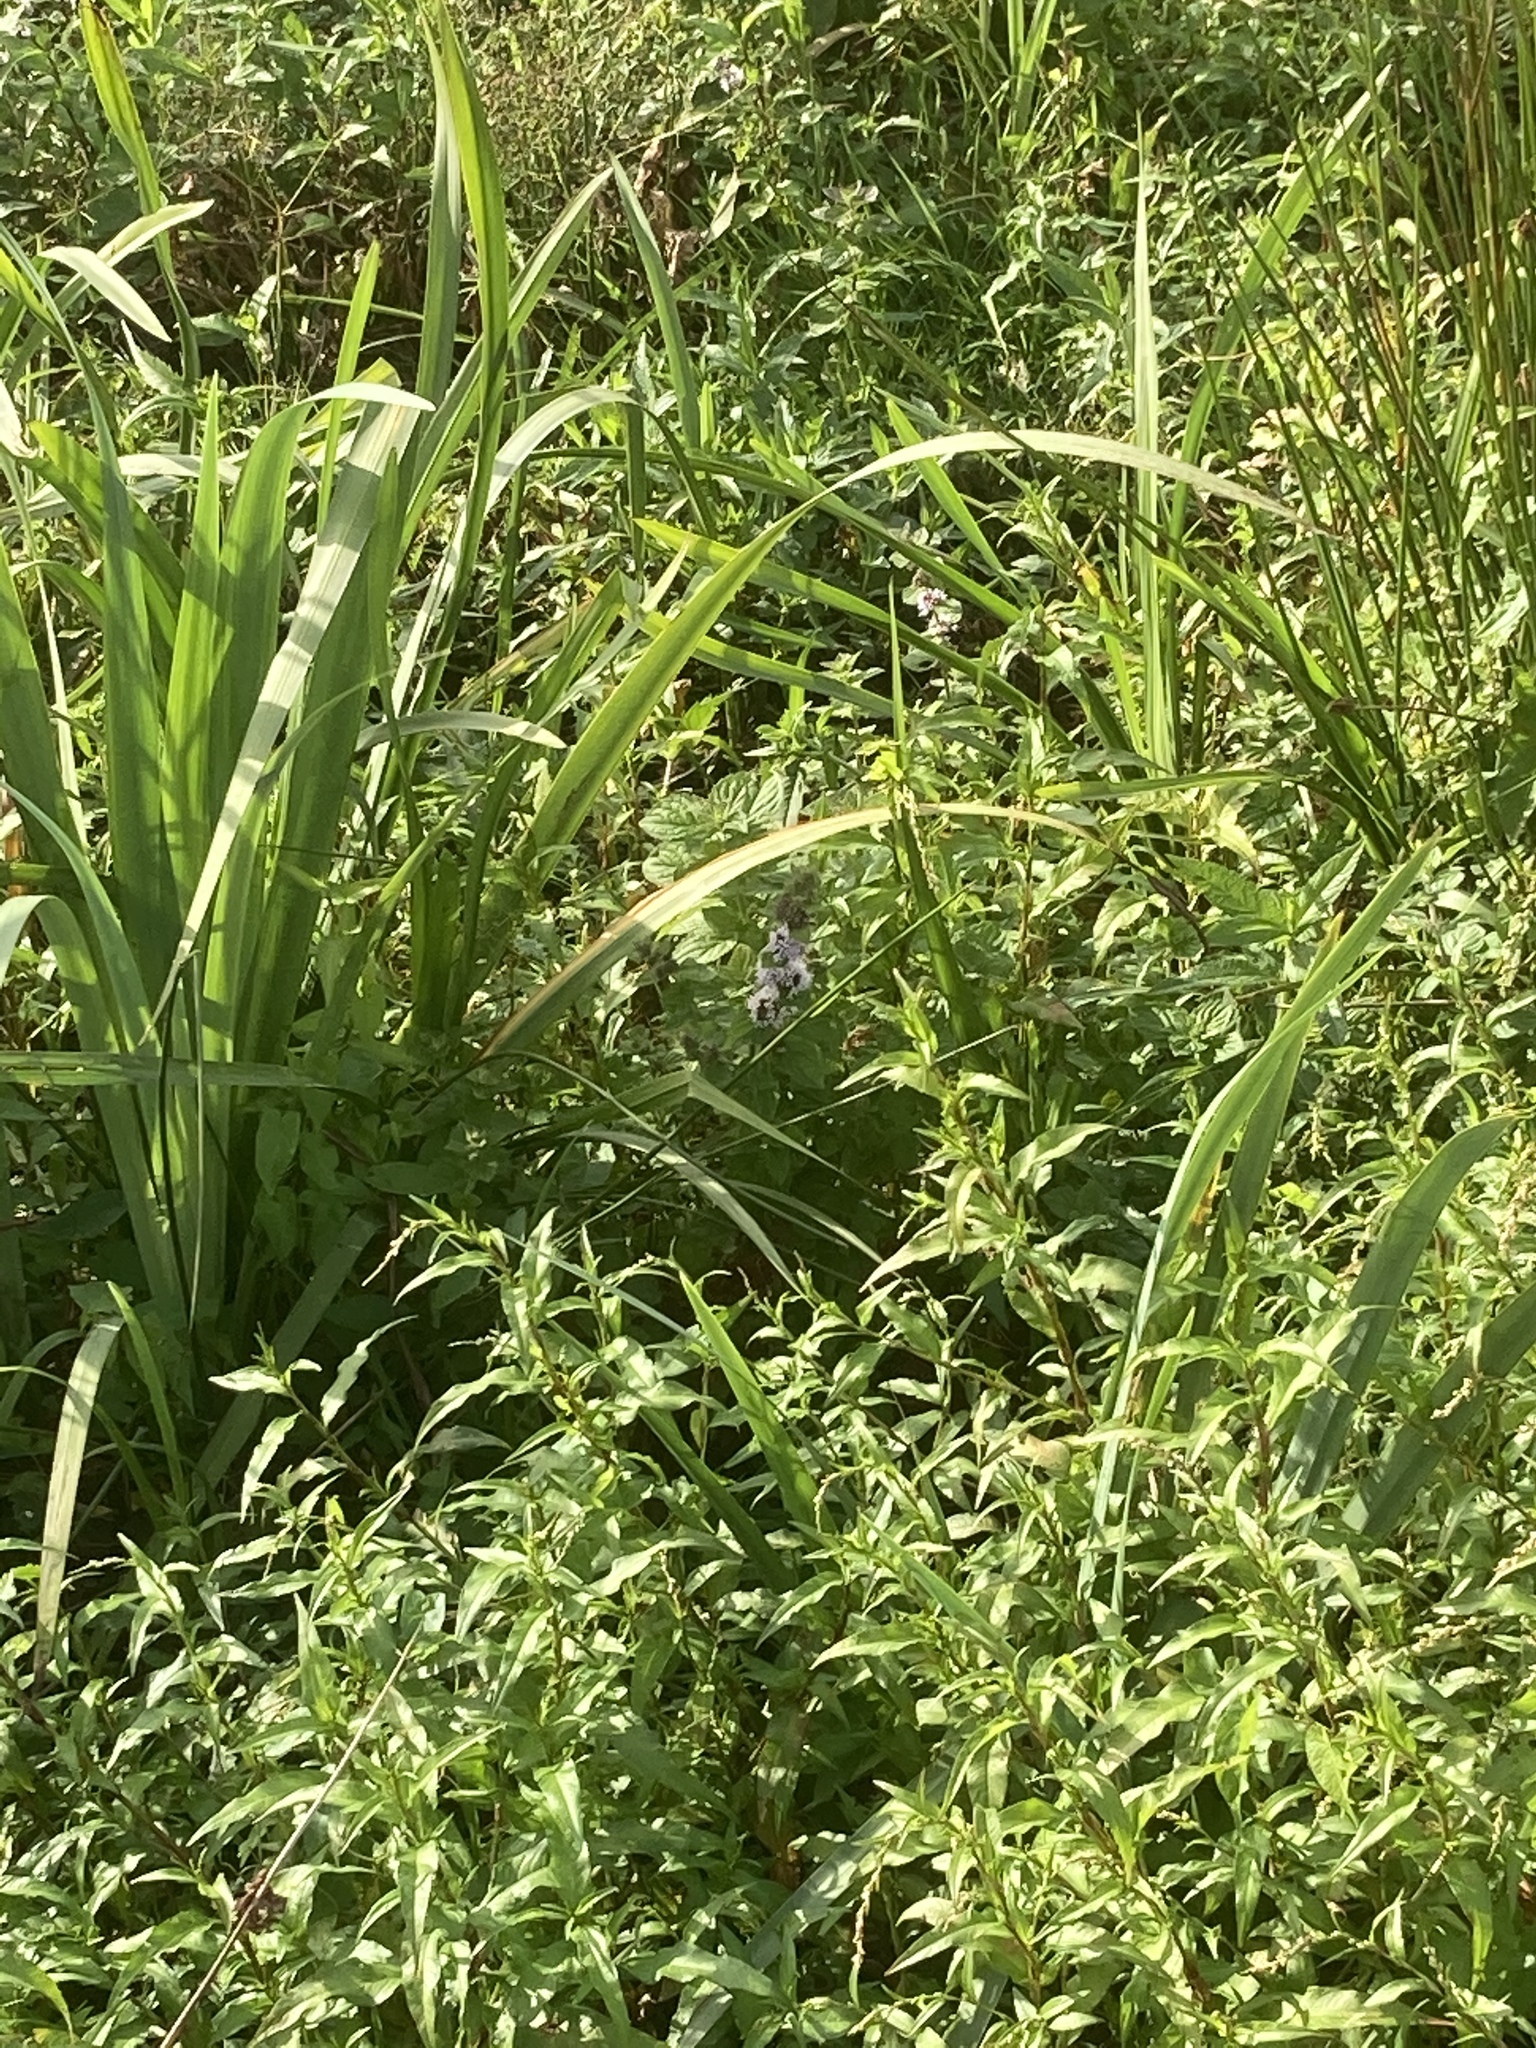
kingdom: Plantae
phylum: Tracheophyta
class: Magnoliopsida
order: Lamiales
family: Lamiaceae
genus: Mentha
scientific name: Mentha aquatica
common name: Water mint
